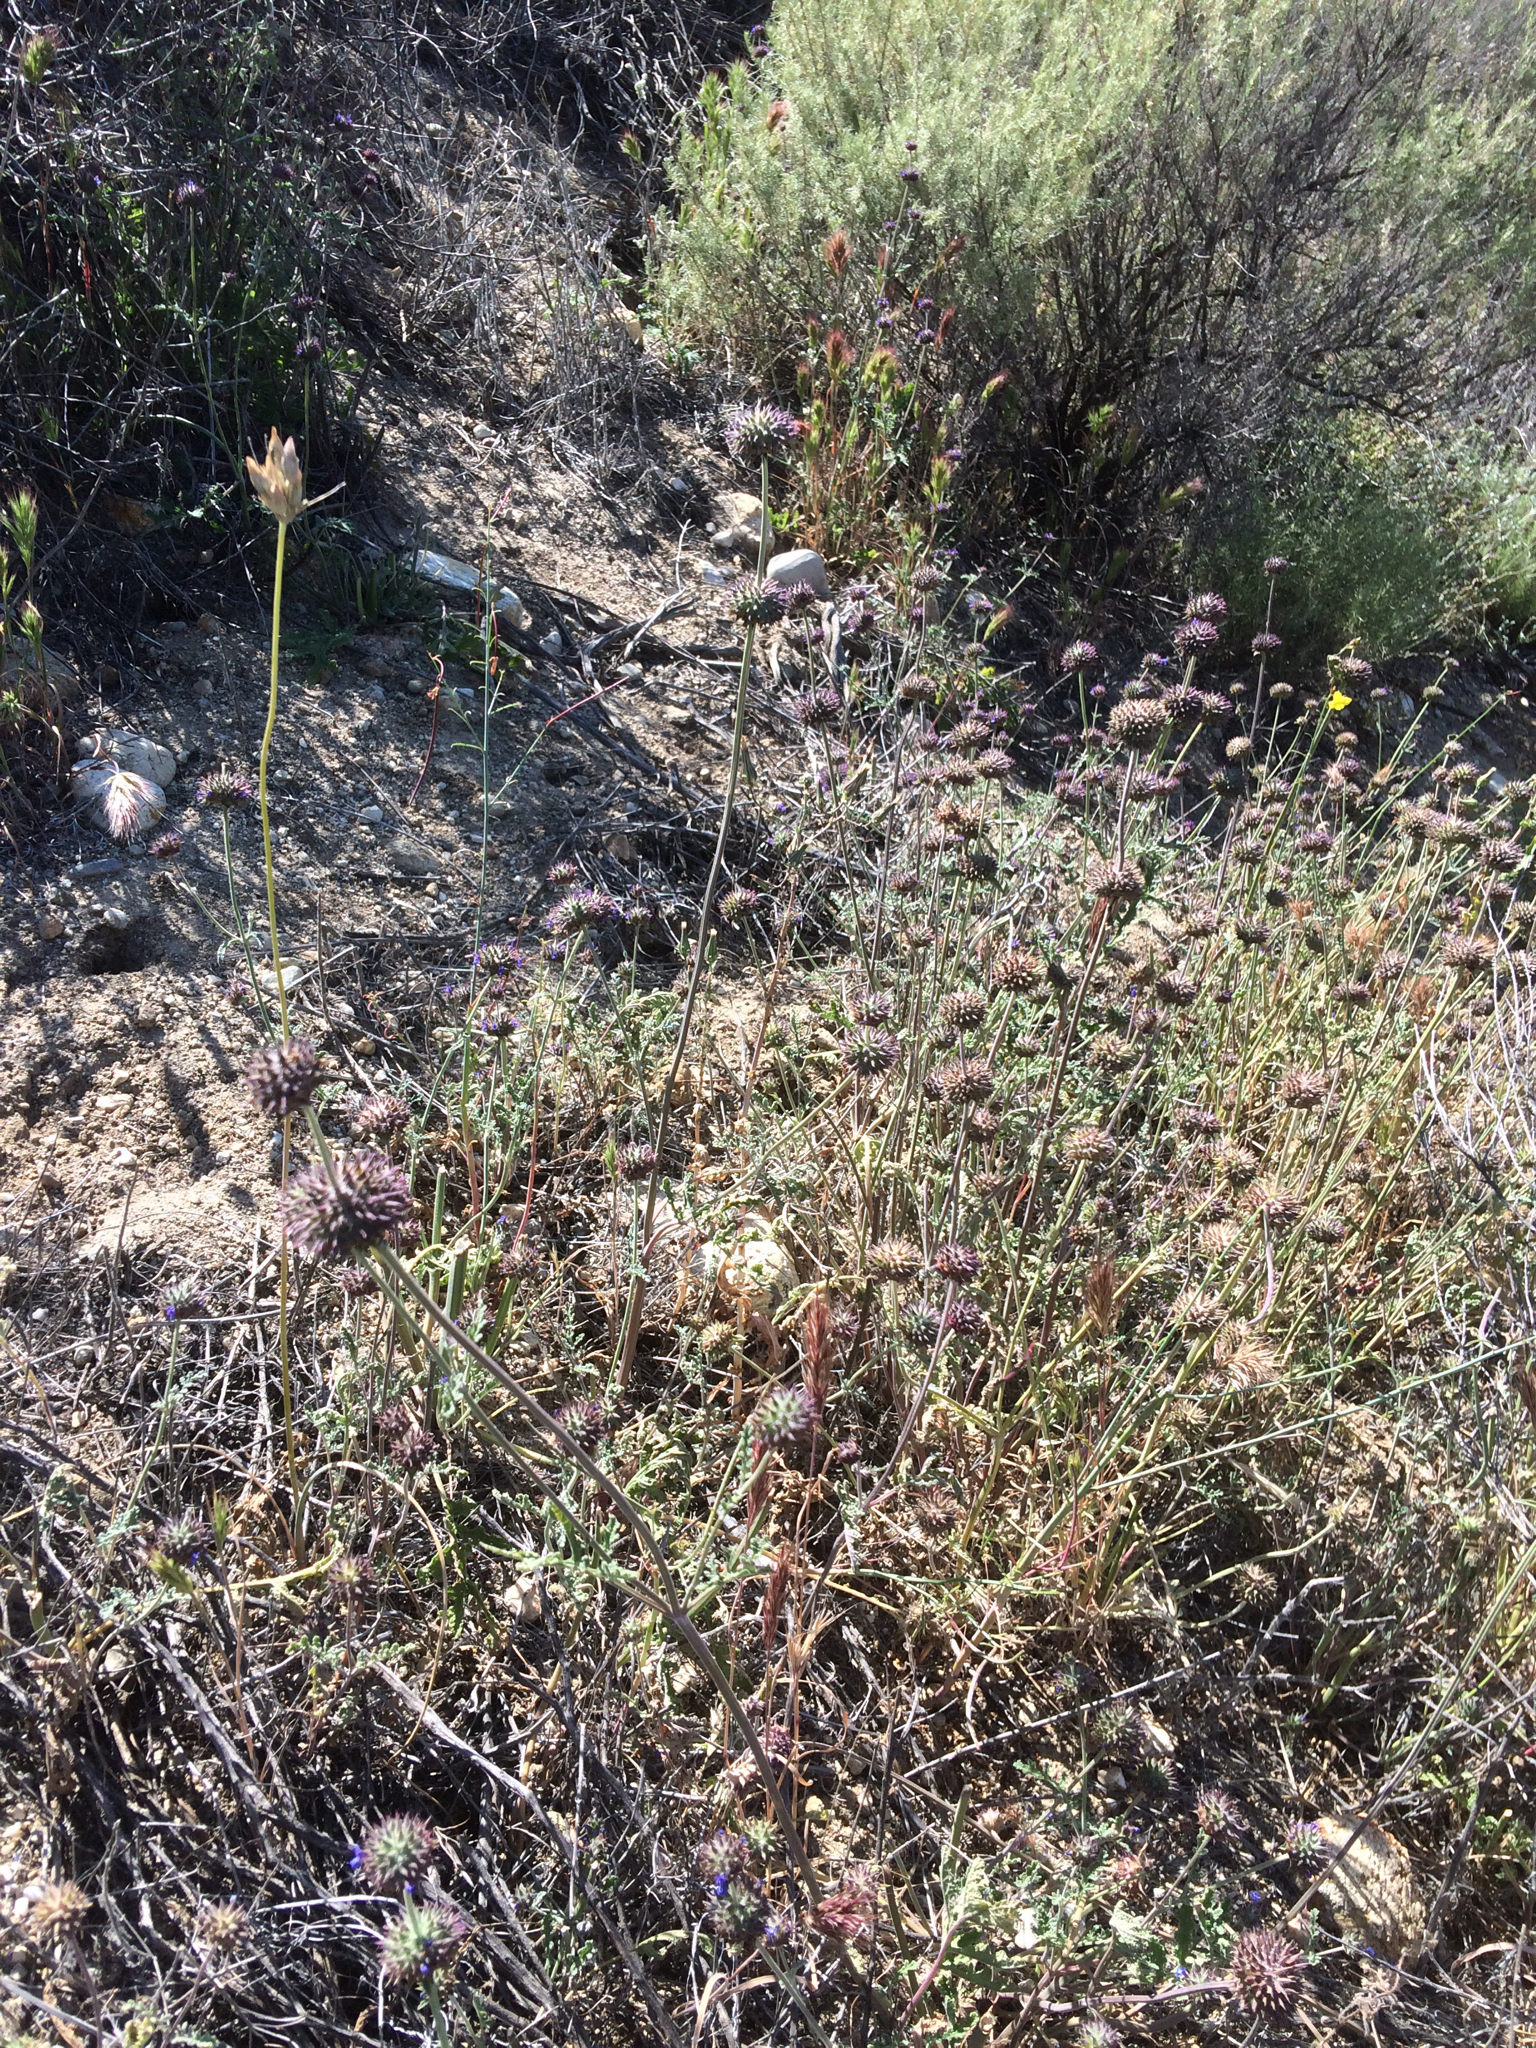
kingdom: Plantae
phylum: Tracheophyta
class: Magnoliopsida
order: Lamiales
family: Lamiaceae
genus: Salvia
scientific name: Salvia columbariae
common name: Chia
